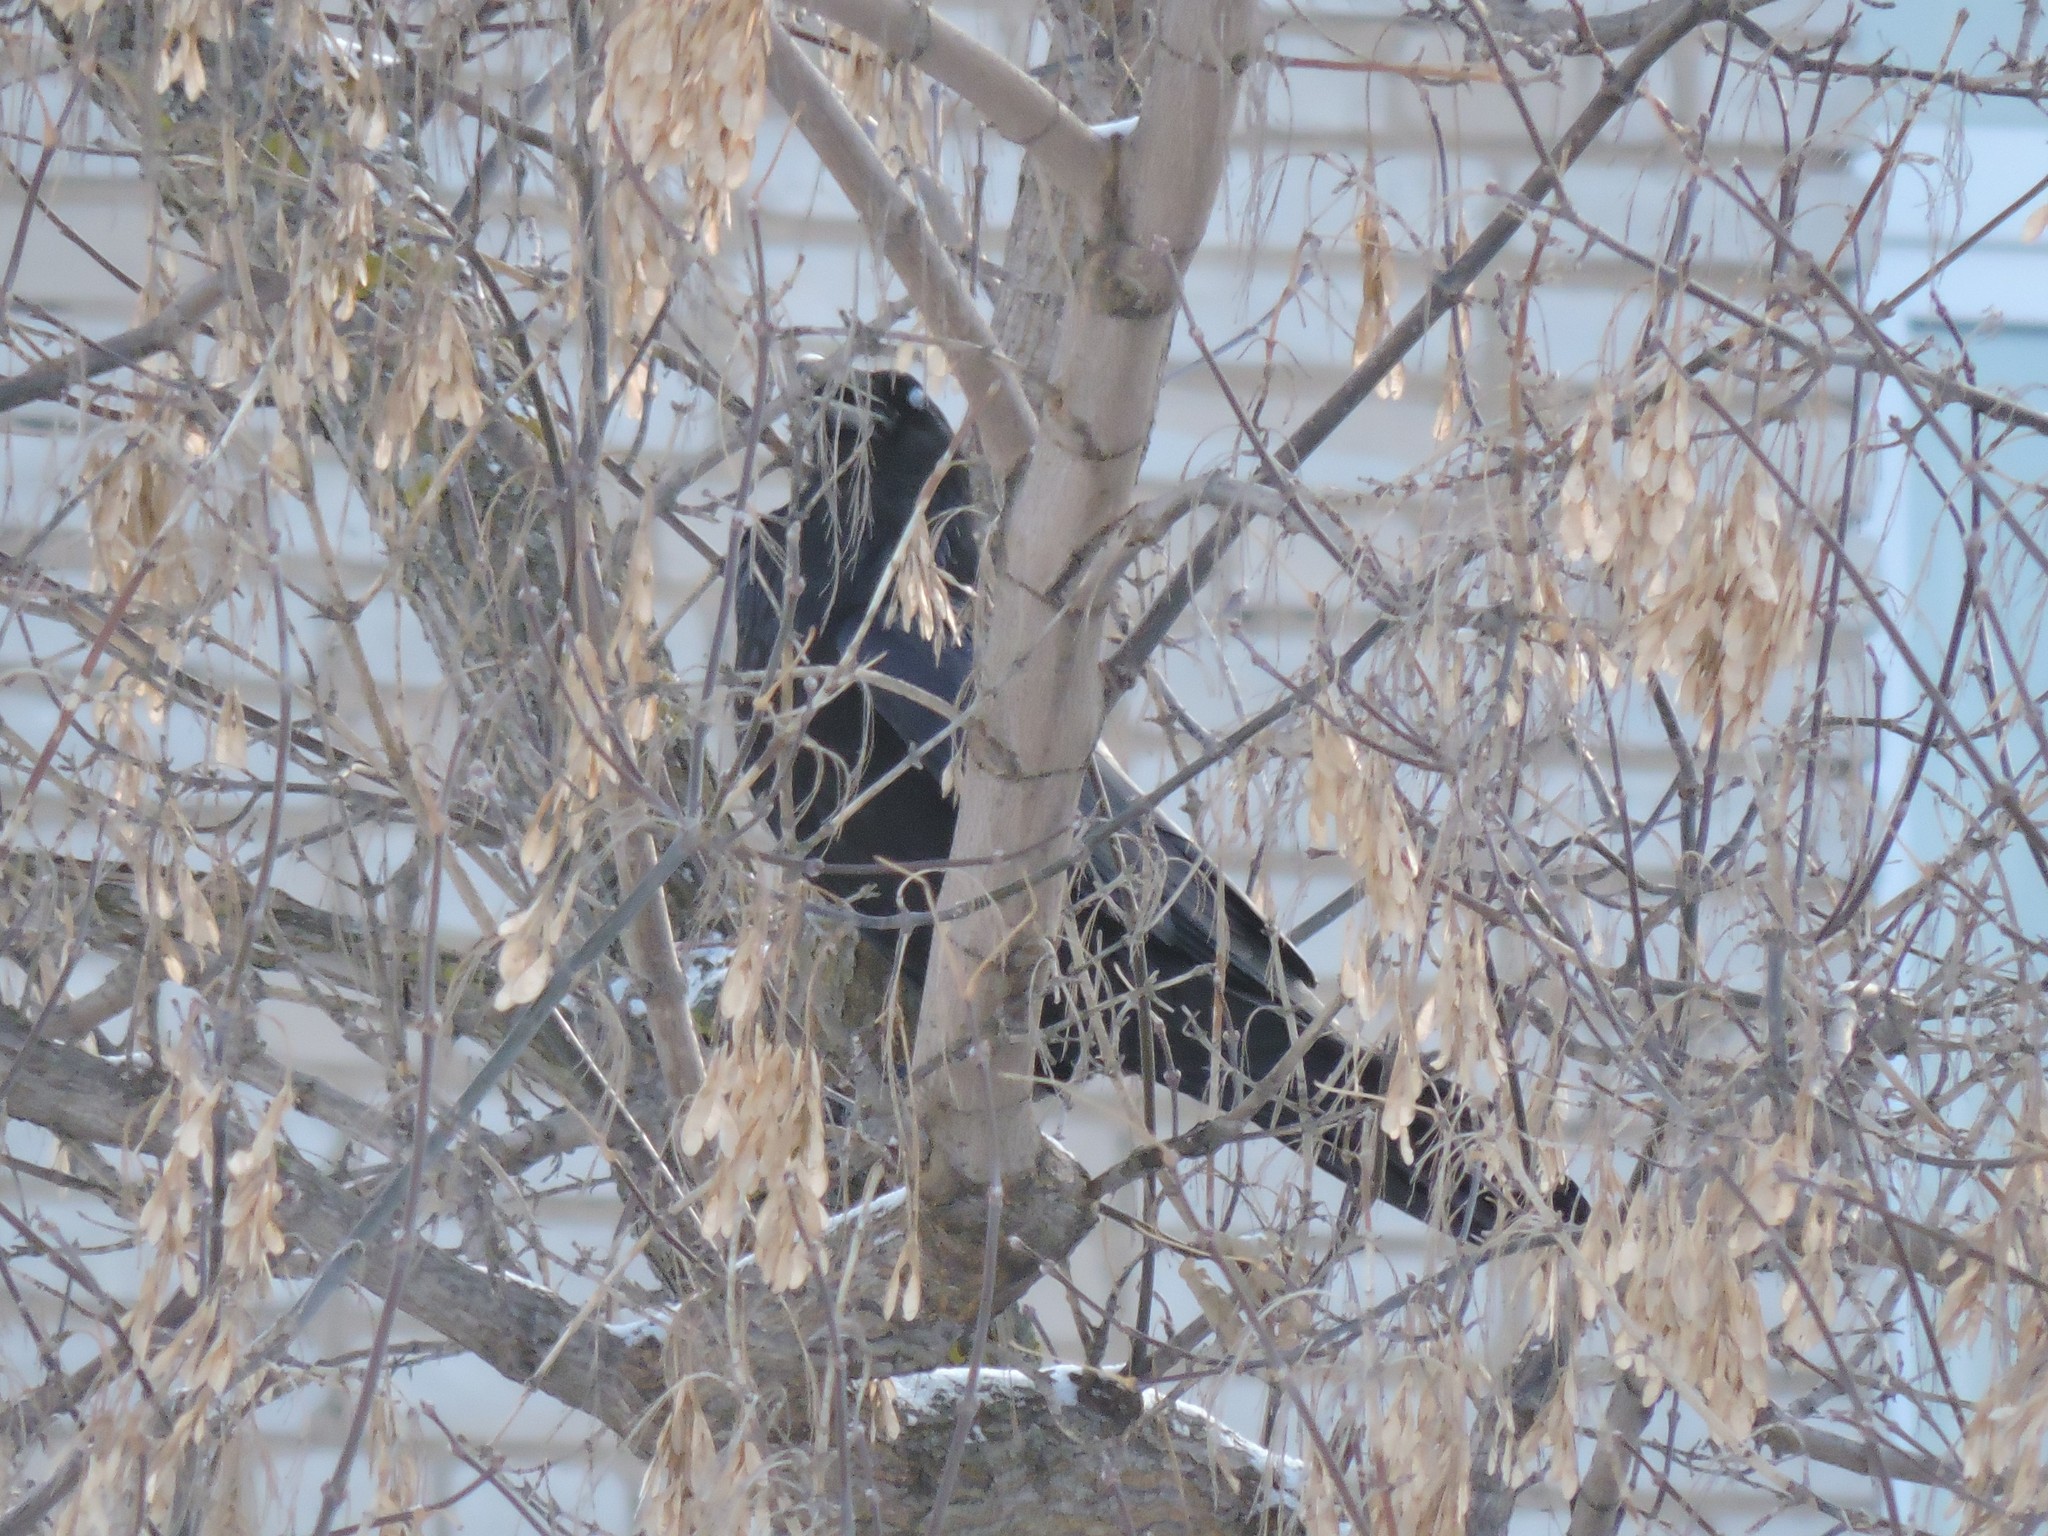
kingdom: Animalia
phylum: Chordata
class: Aves
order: Passeriformes
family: Corvidae
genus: Corvus
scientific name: Corvus corax
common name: Common raven
